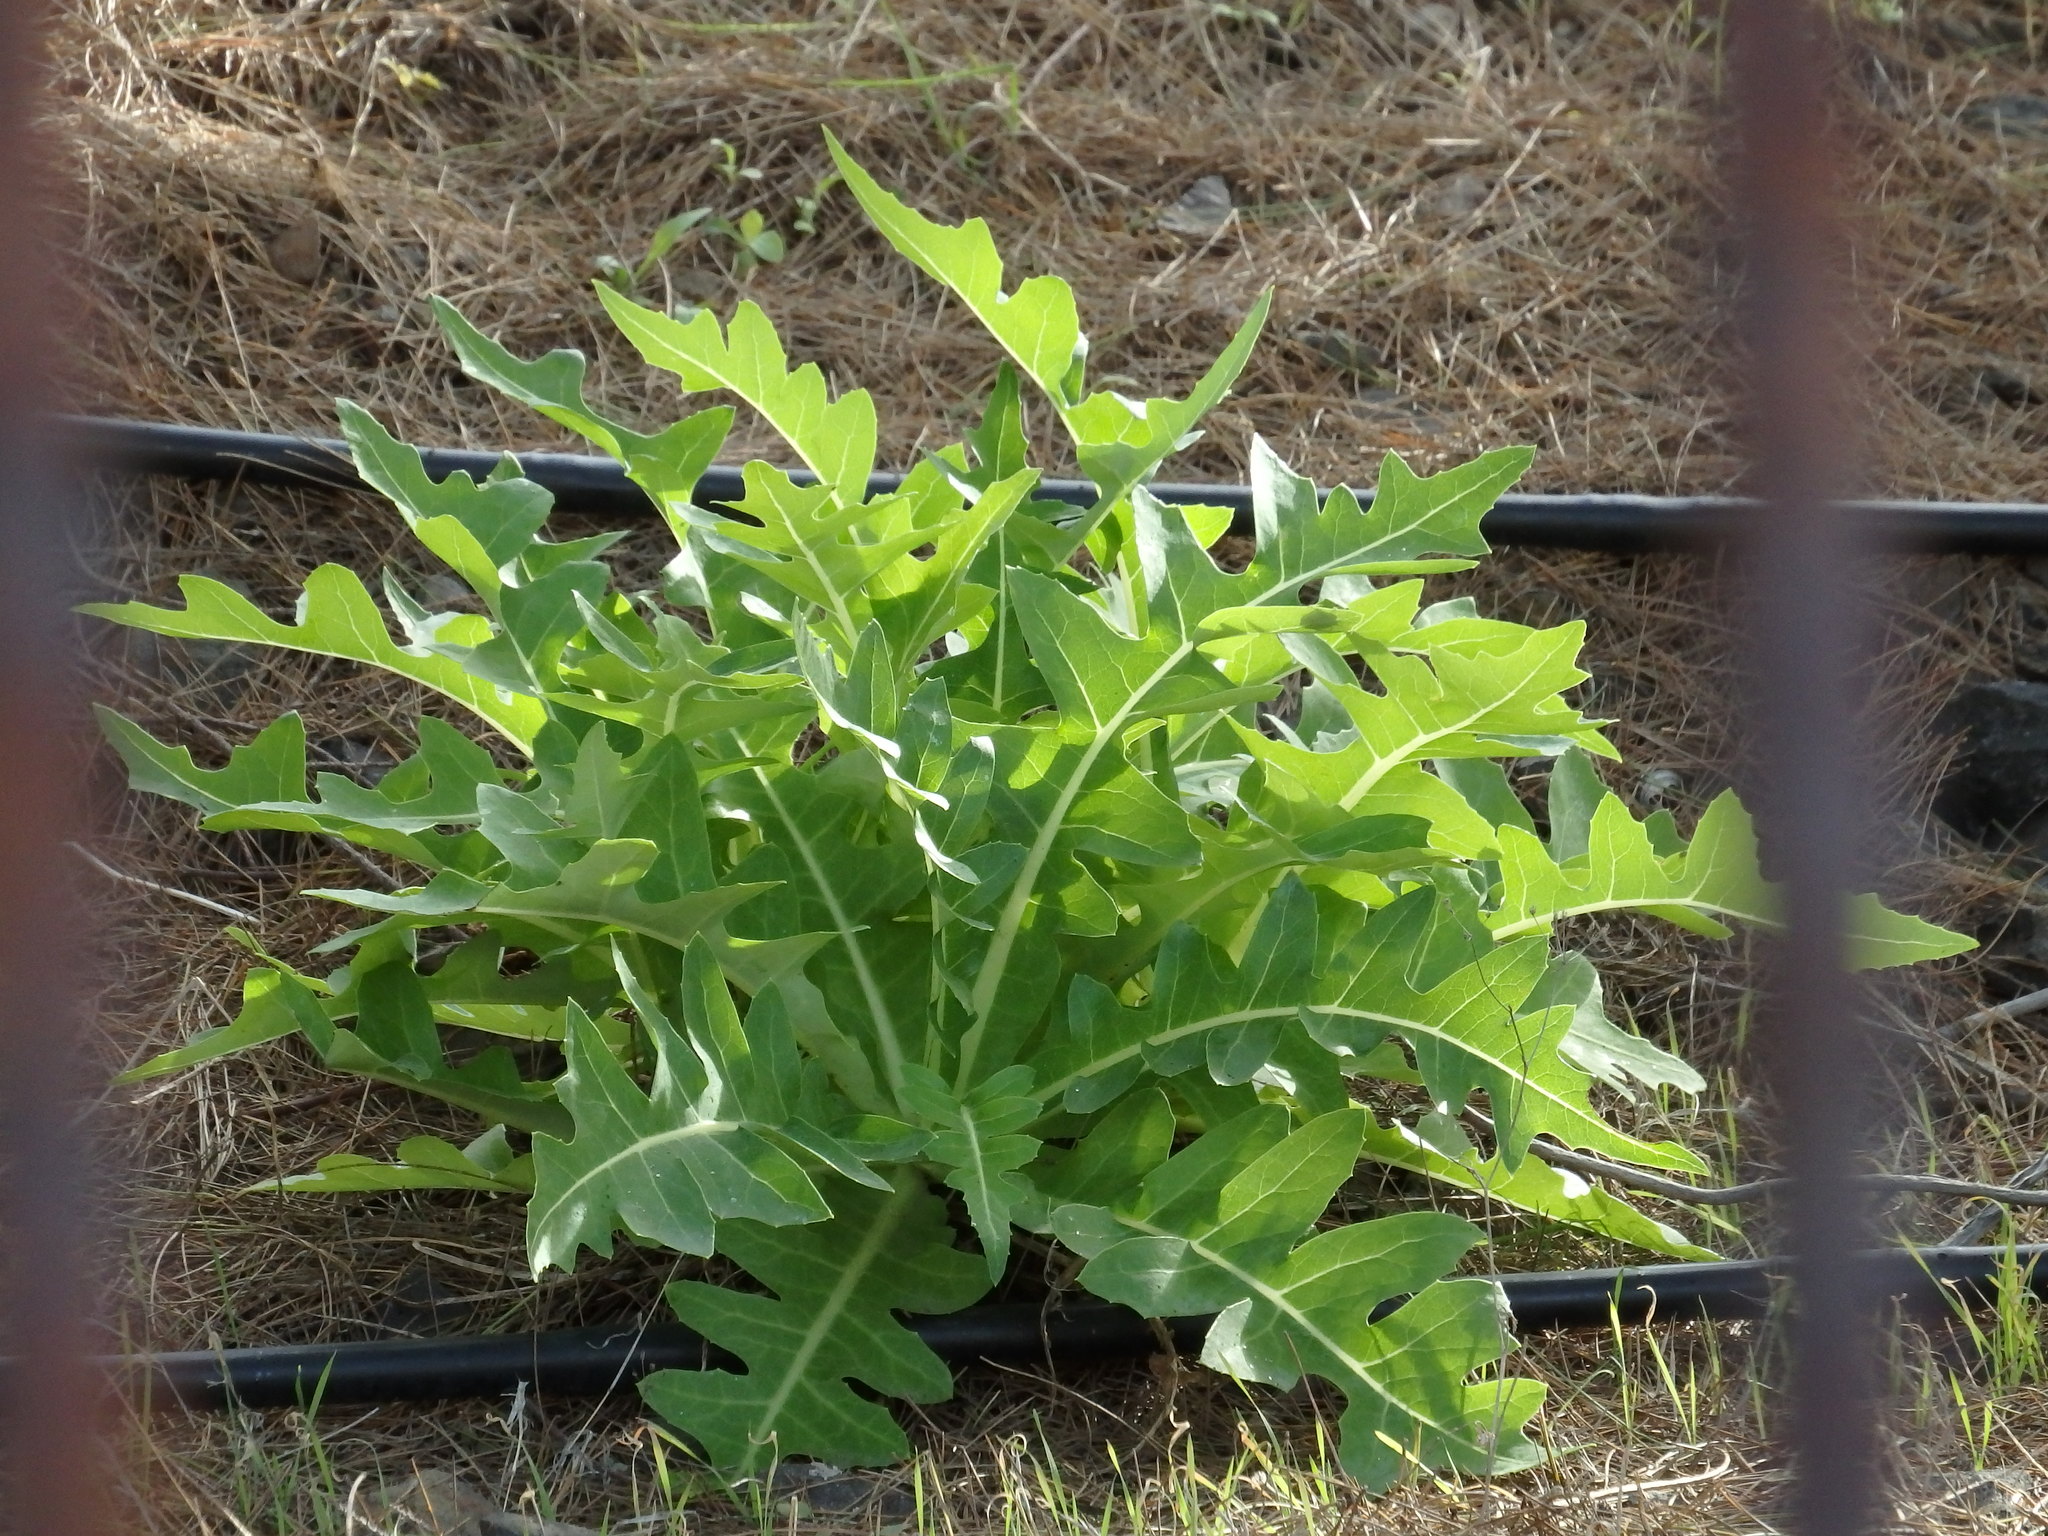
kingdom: Plantae
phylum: Tracheophyta
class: Magnoliopsida
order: Asterales
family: Asteraceae
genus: Sonchus
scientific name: Sonchus parathalassius
